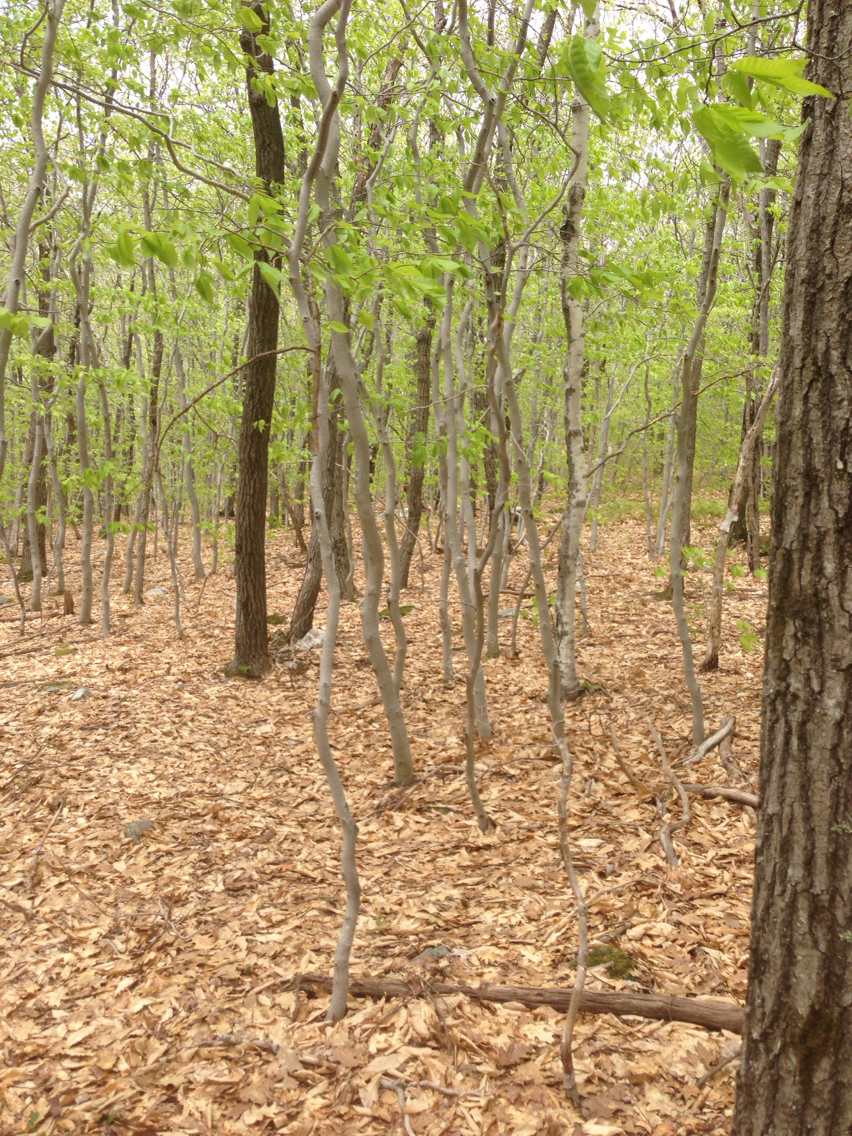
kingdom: Plantae
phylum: Tracheophyta
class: Magnoliopsida
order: Fagales
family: Fagaceae
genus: Fagus
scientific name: Fagus grandifolia
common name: American beech
